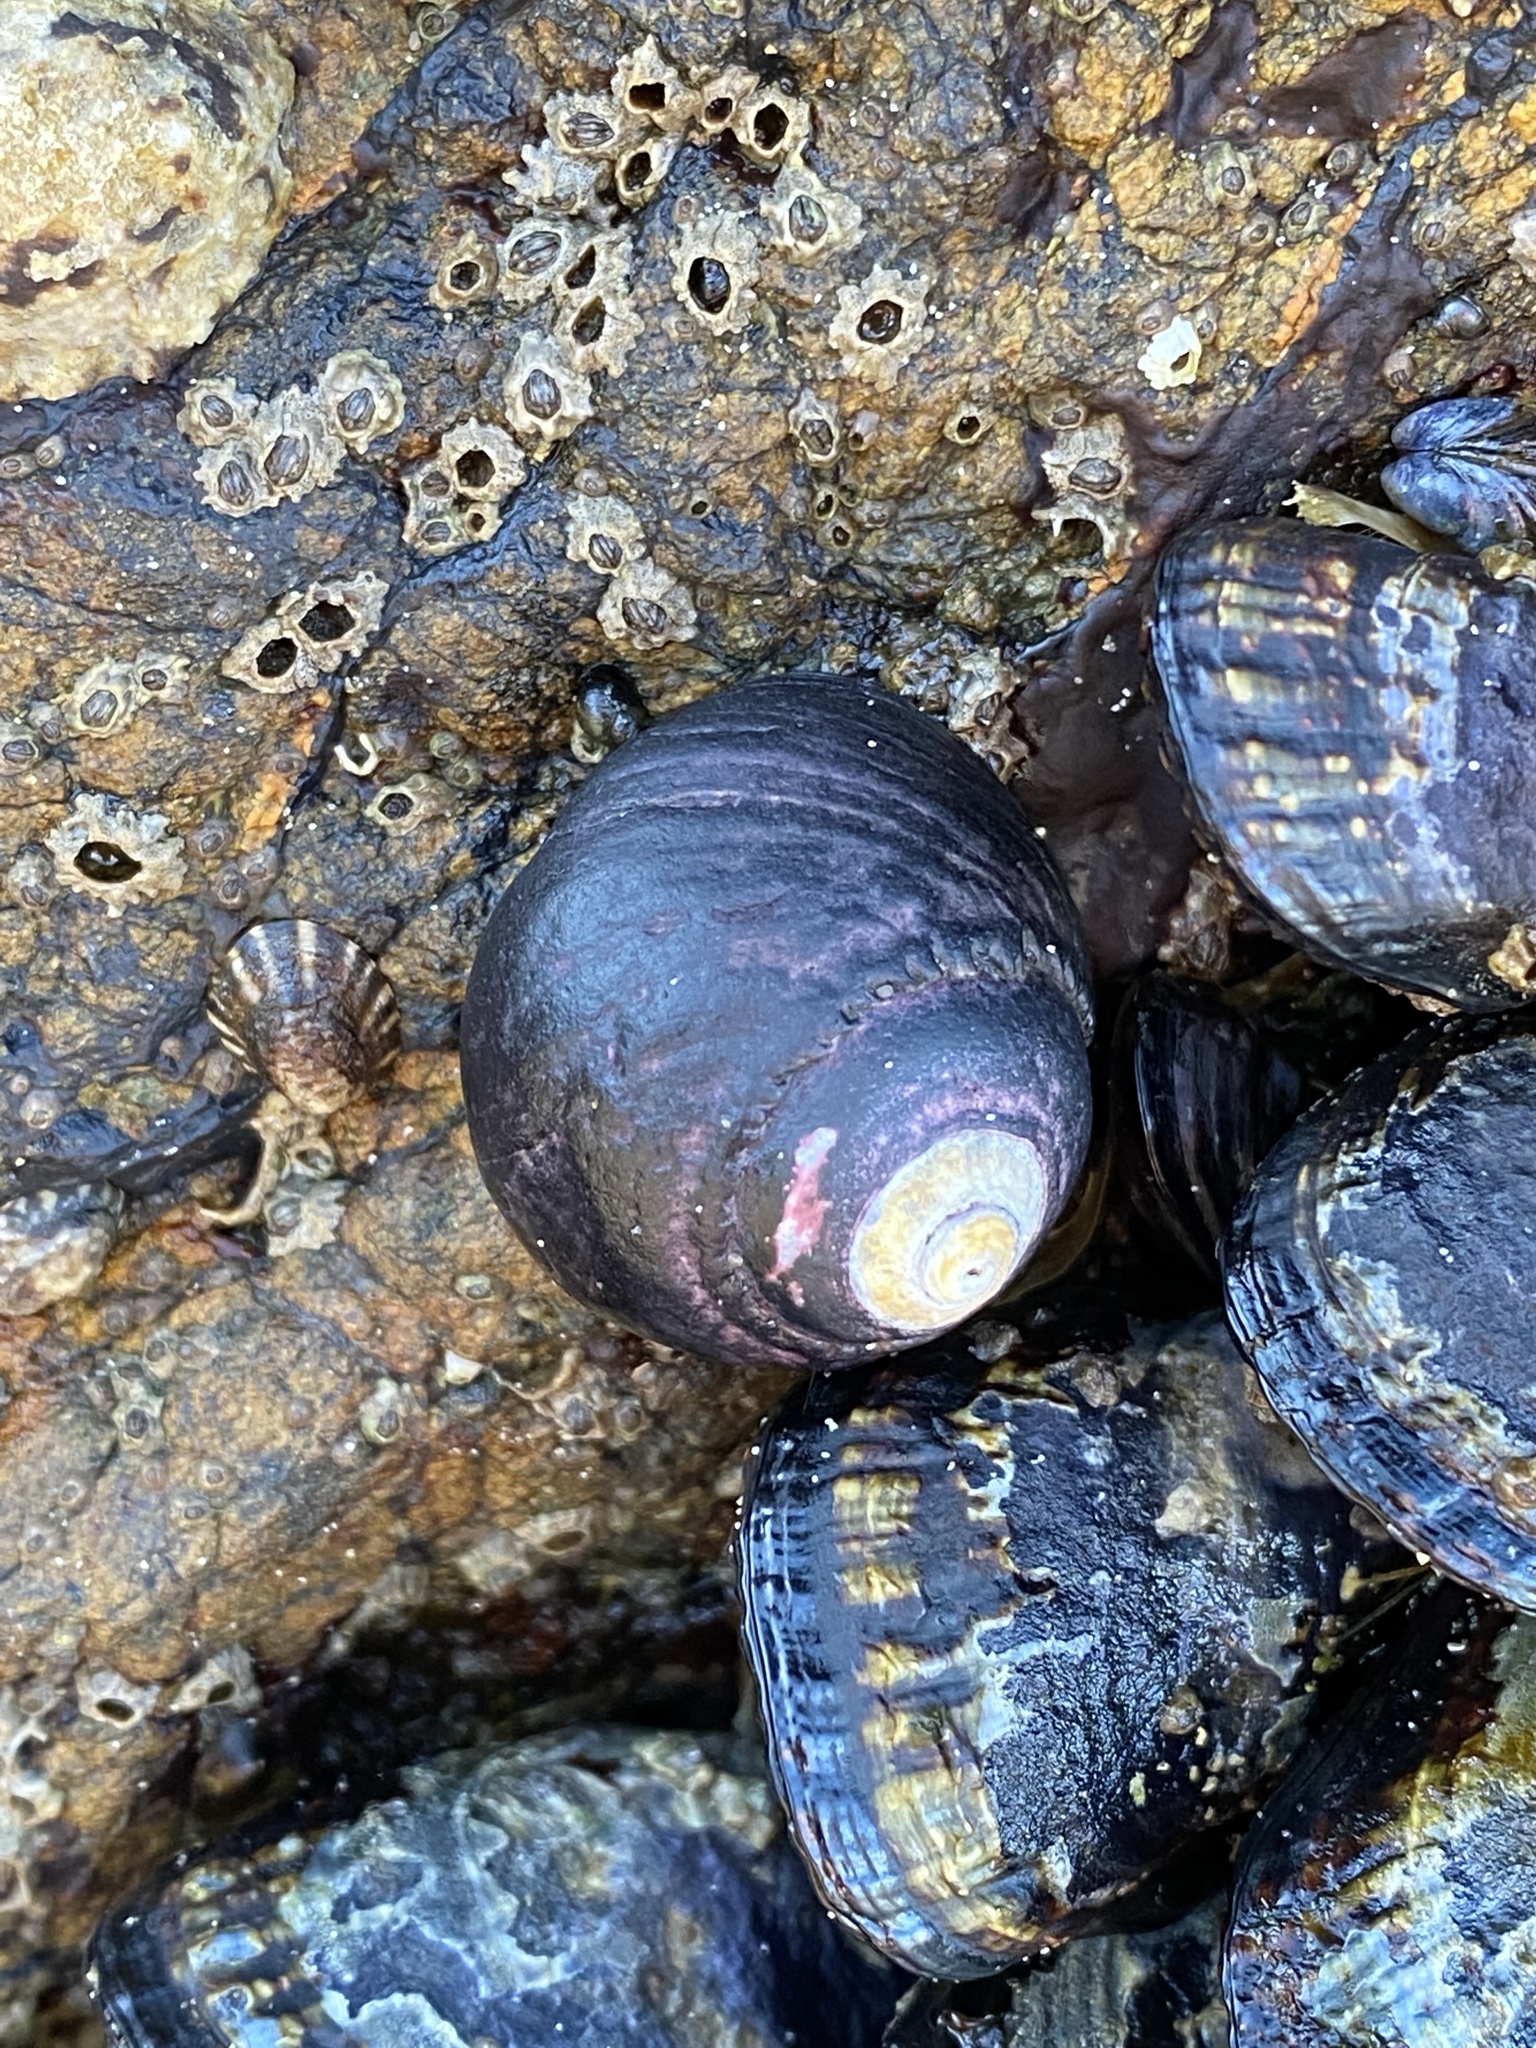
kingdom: Animalia
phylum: Mollusca
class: Gastropoda
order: Trochida
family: Tegulidae
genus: Tegula
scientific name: Tegula funebralis
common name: Black tegula
